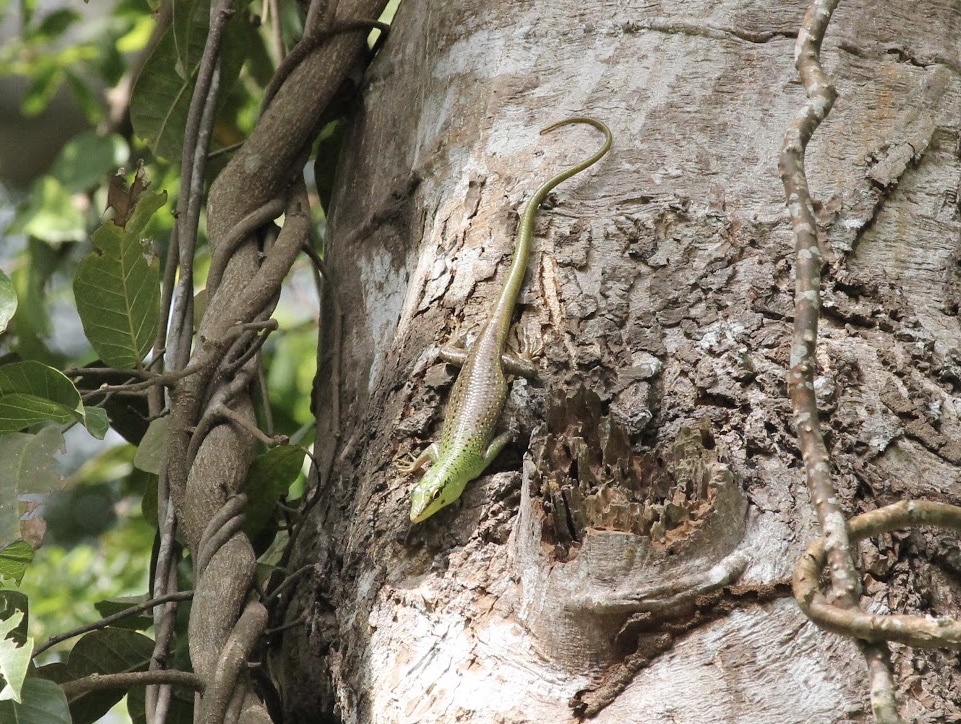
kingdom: Animalia
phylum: Chordata
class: Squamata
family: Scincidae
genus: Lamprolepis
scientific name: Lamprolepis smaragdina
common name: Emerald skink
